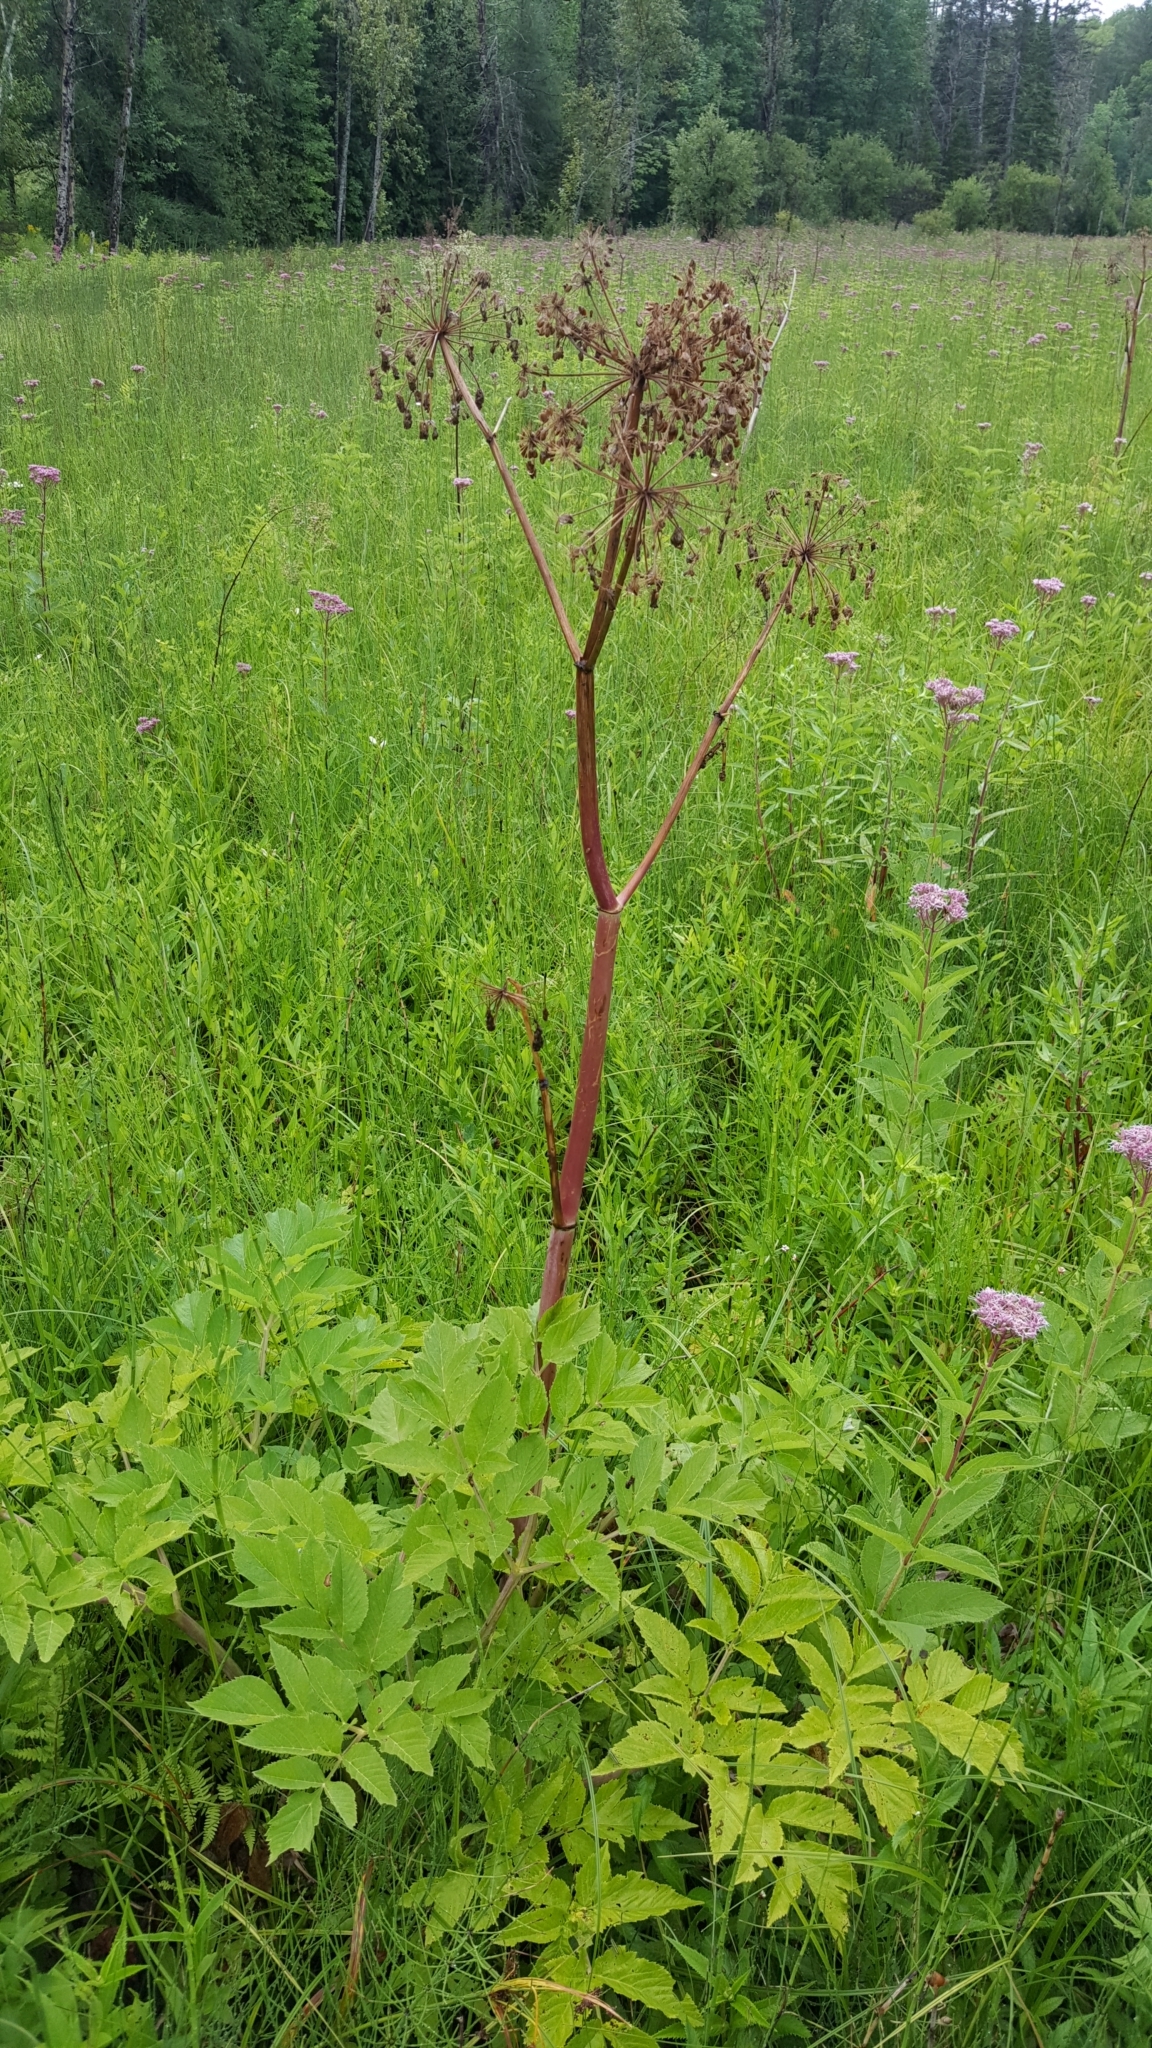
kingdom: Plantae
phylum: Tracheophyta
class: Magnoliopsida
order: Apiales
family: Apiaceae
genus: Angelica
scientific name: Angelica atropurpurea
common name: Great angelica
